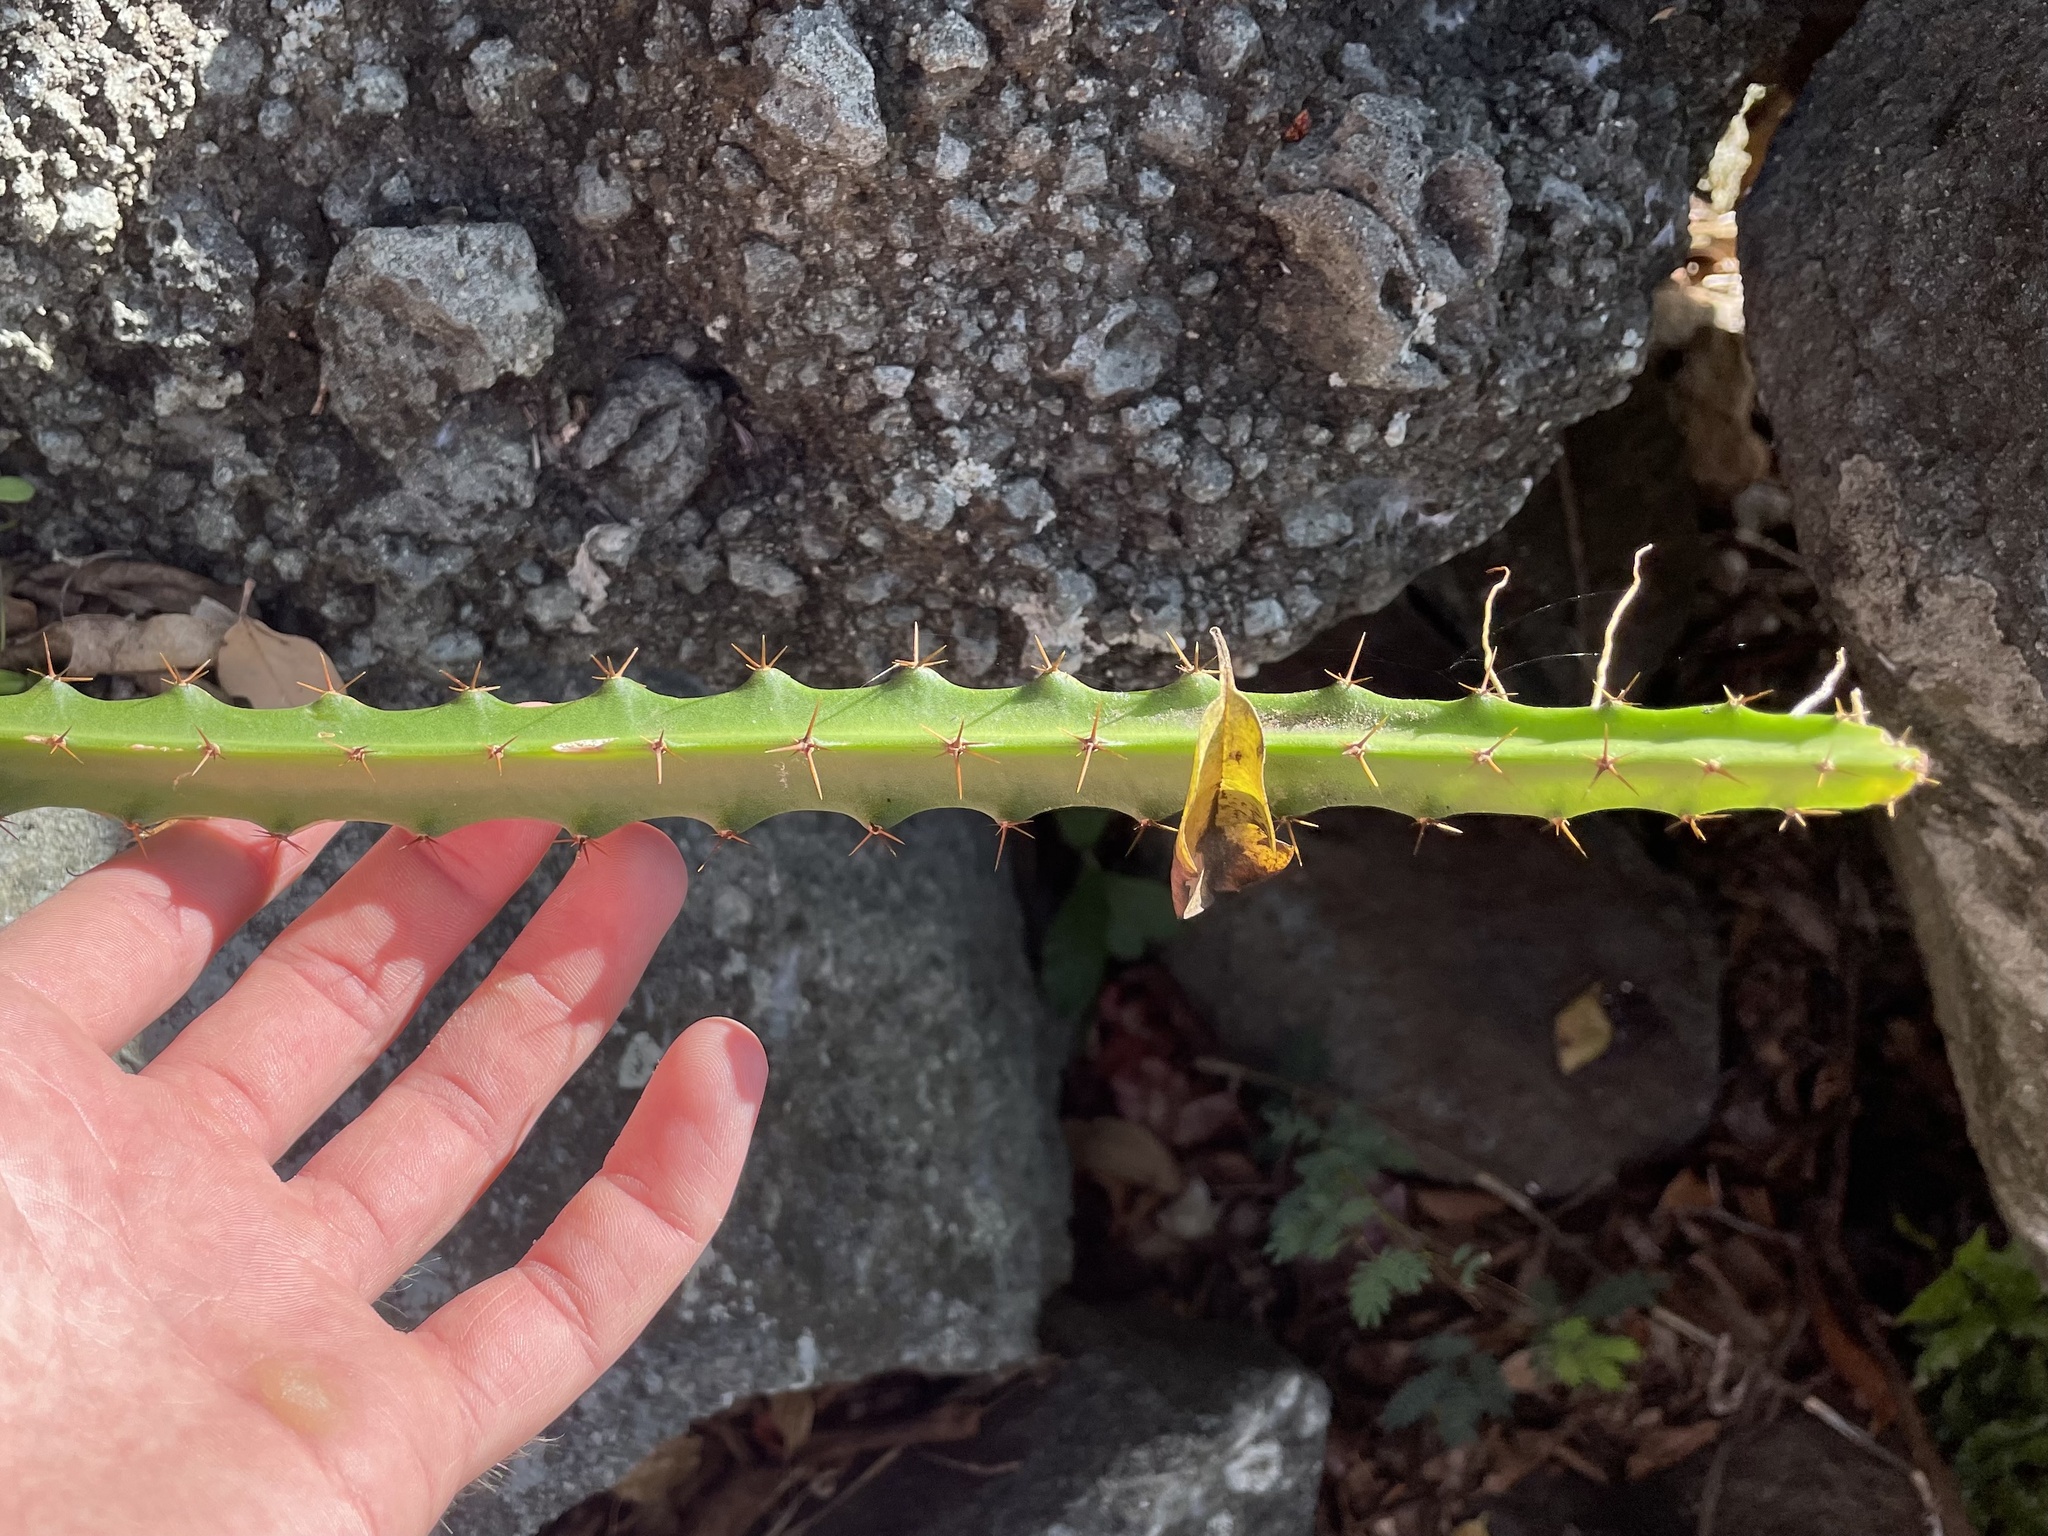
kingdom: Plantae
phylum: Tracheophyta
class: Magnoliopsida
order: Caryophyllales
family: Cactaceae
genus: Selenicereus
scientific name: Selenicereus triangularis
